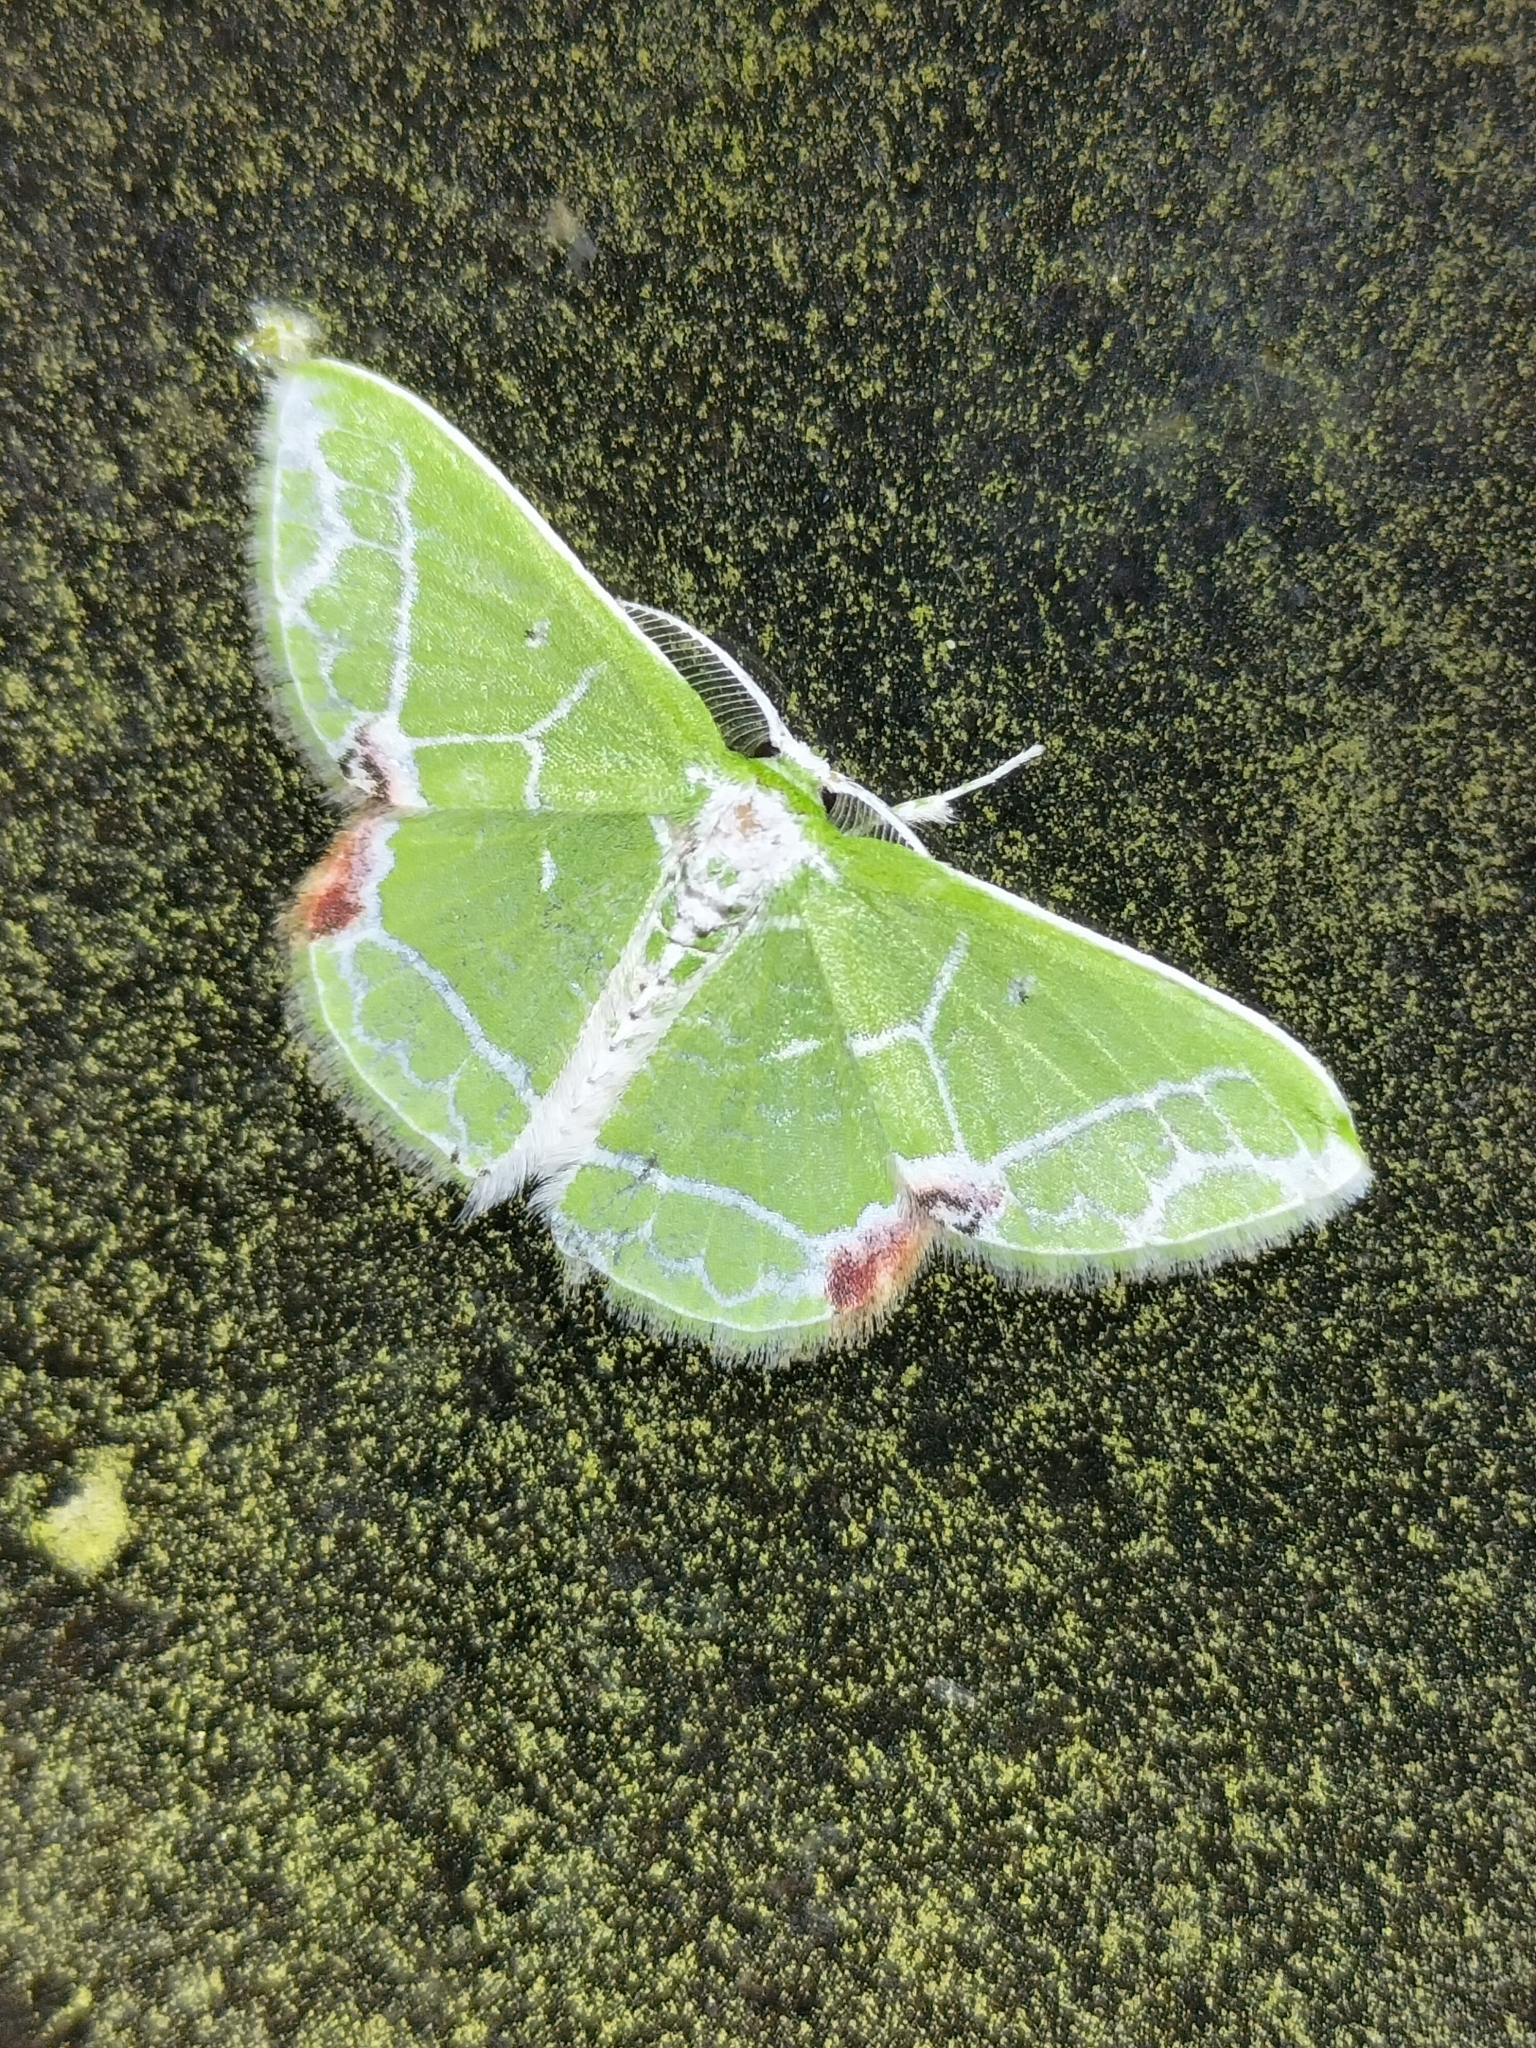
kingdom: Animalia
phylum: Arthropoda
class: Insecta
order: Lepidoptera
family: Geometridae
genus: Protuliocnemis
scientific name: Protuliocnemis biplagiata
